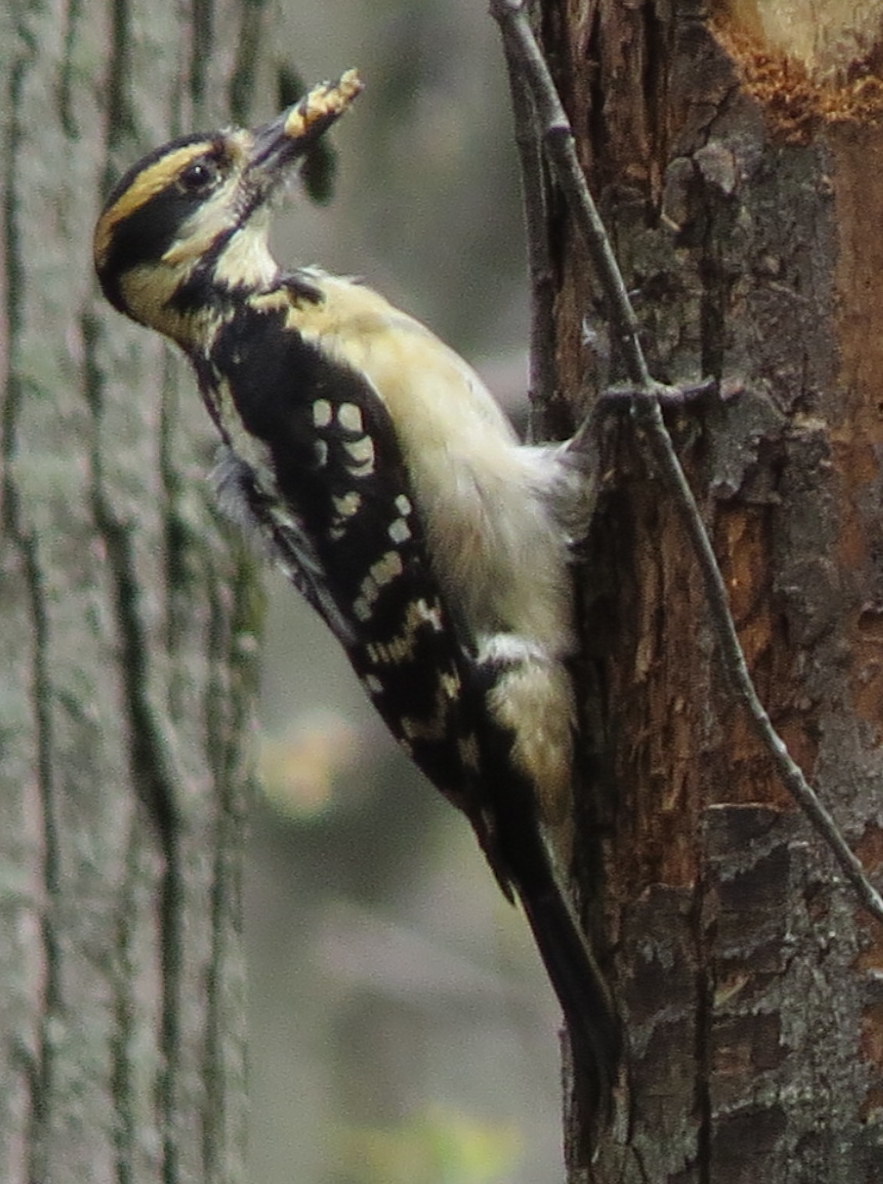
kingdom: Animalia
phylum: Chordata
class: Aves
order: Piciformes
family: Picidae
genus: Leuconotopicus
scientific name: Leuconotopicus villosus
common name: Hairy woodpecker
